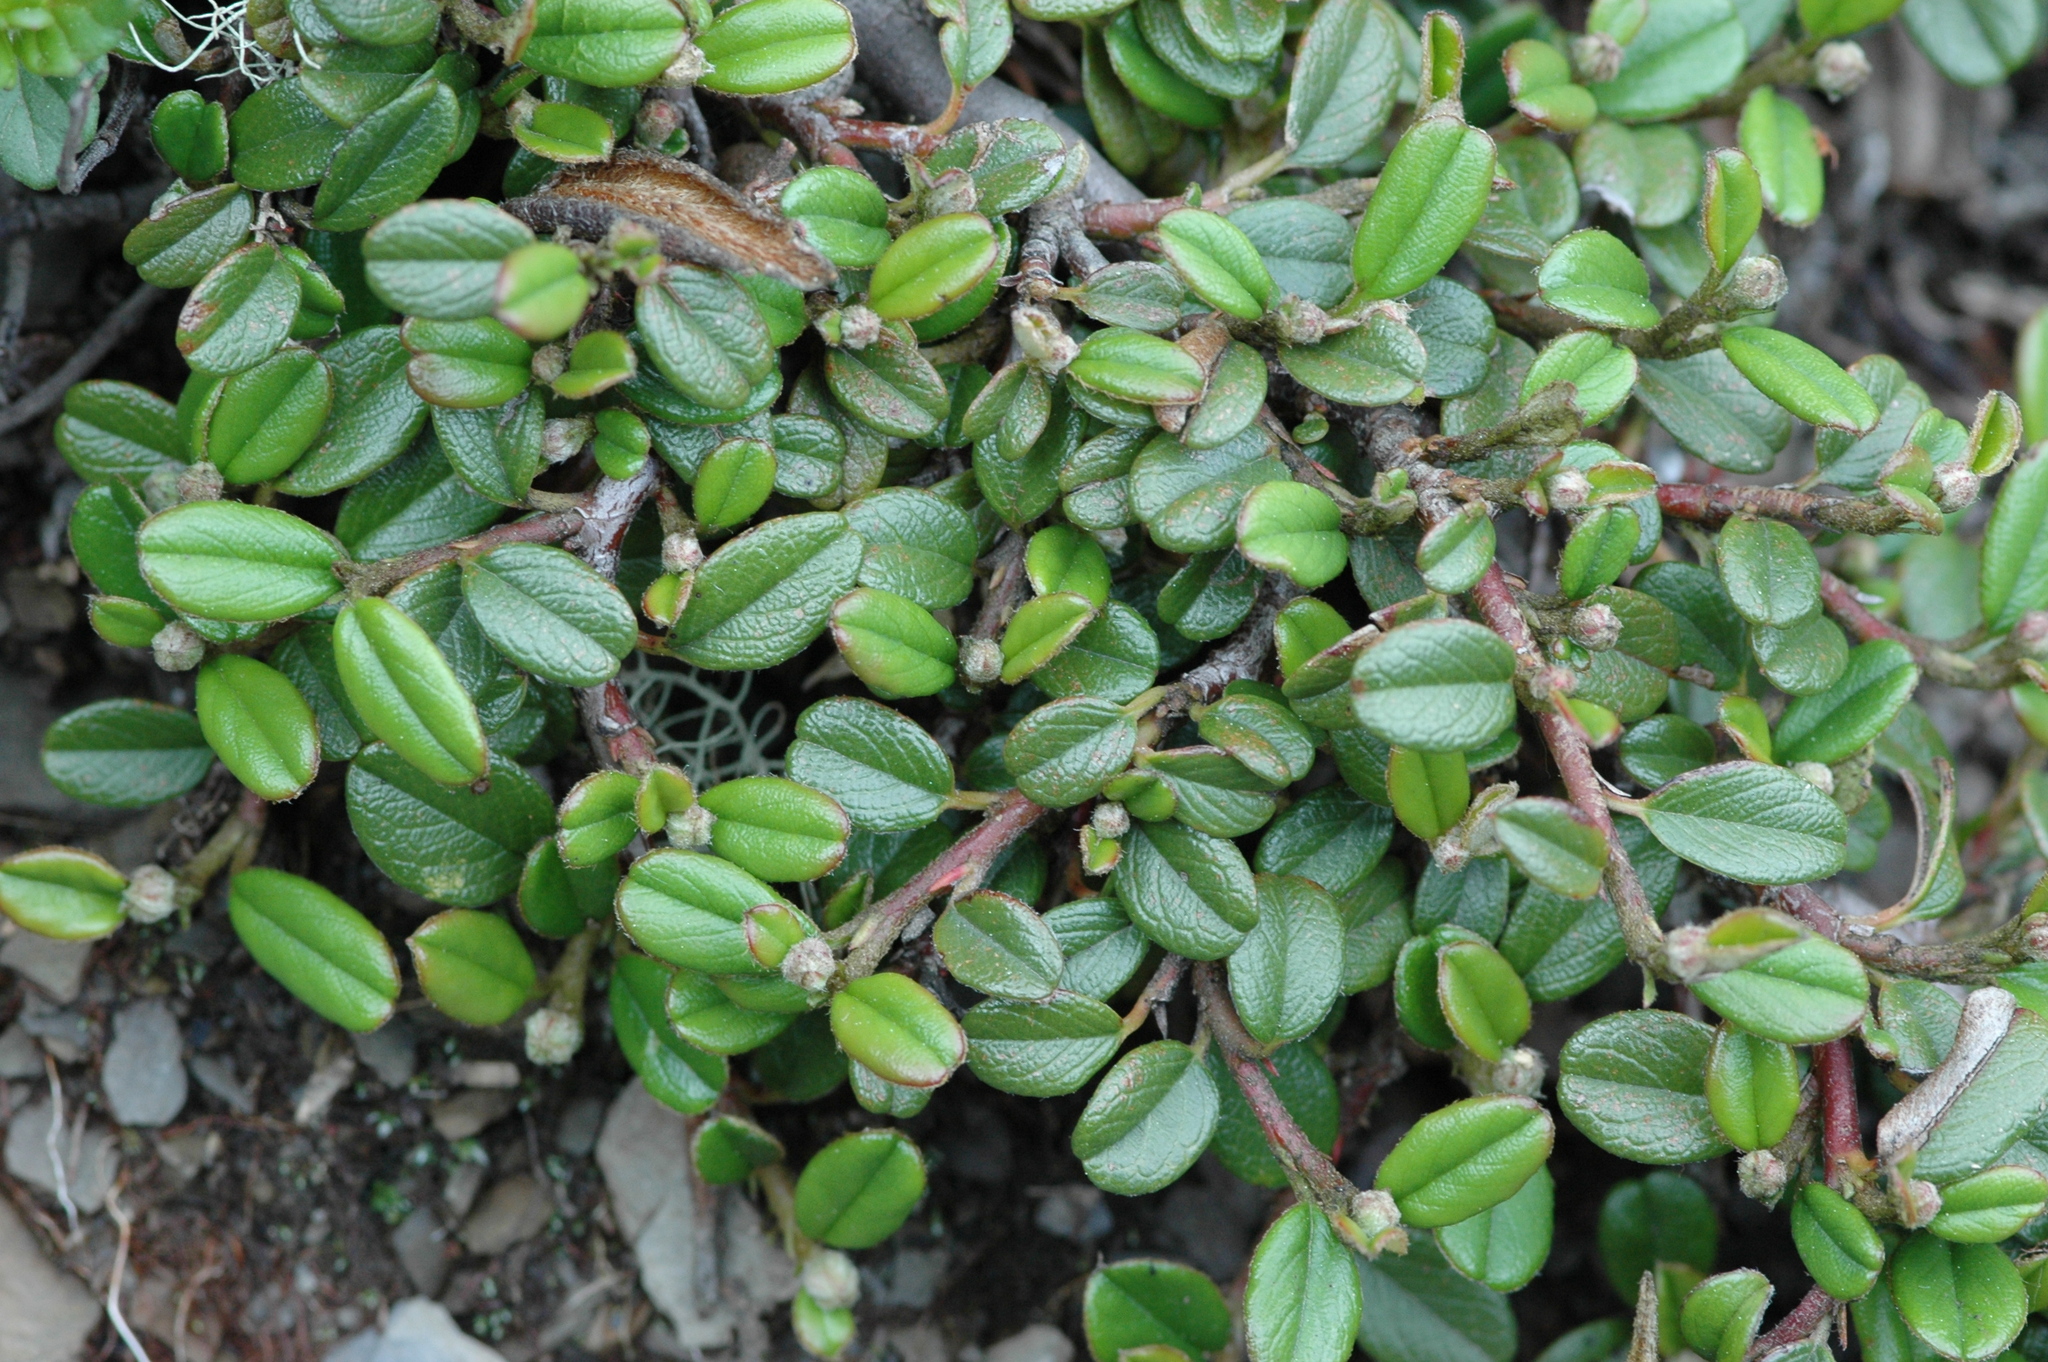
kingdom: Plantae
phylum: Tracheophyta
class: Magnoliopsida
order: Rosales
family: Rosaceae
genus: Cotoneaster
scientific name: Cotoneaster morrisonensis
